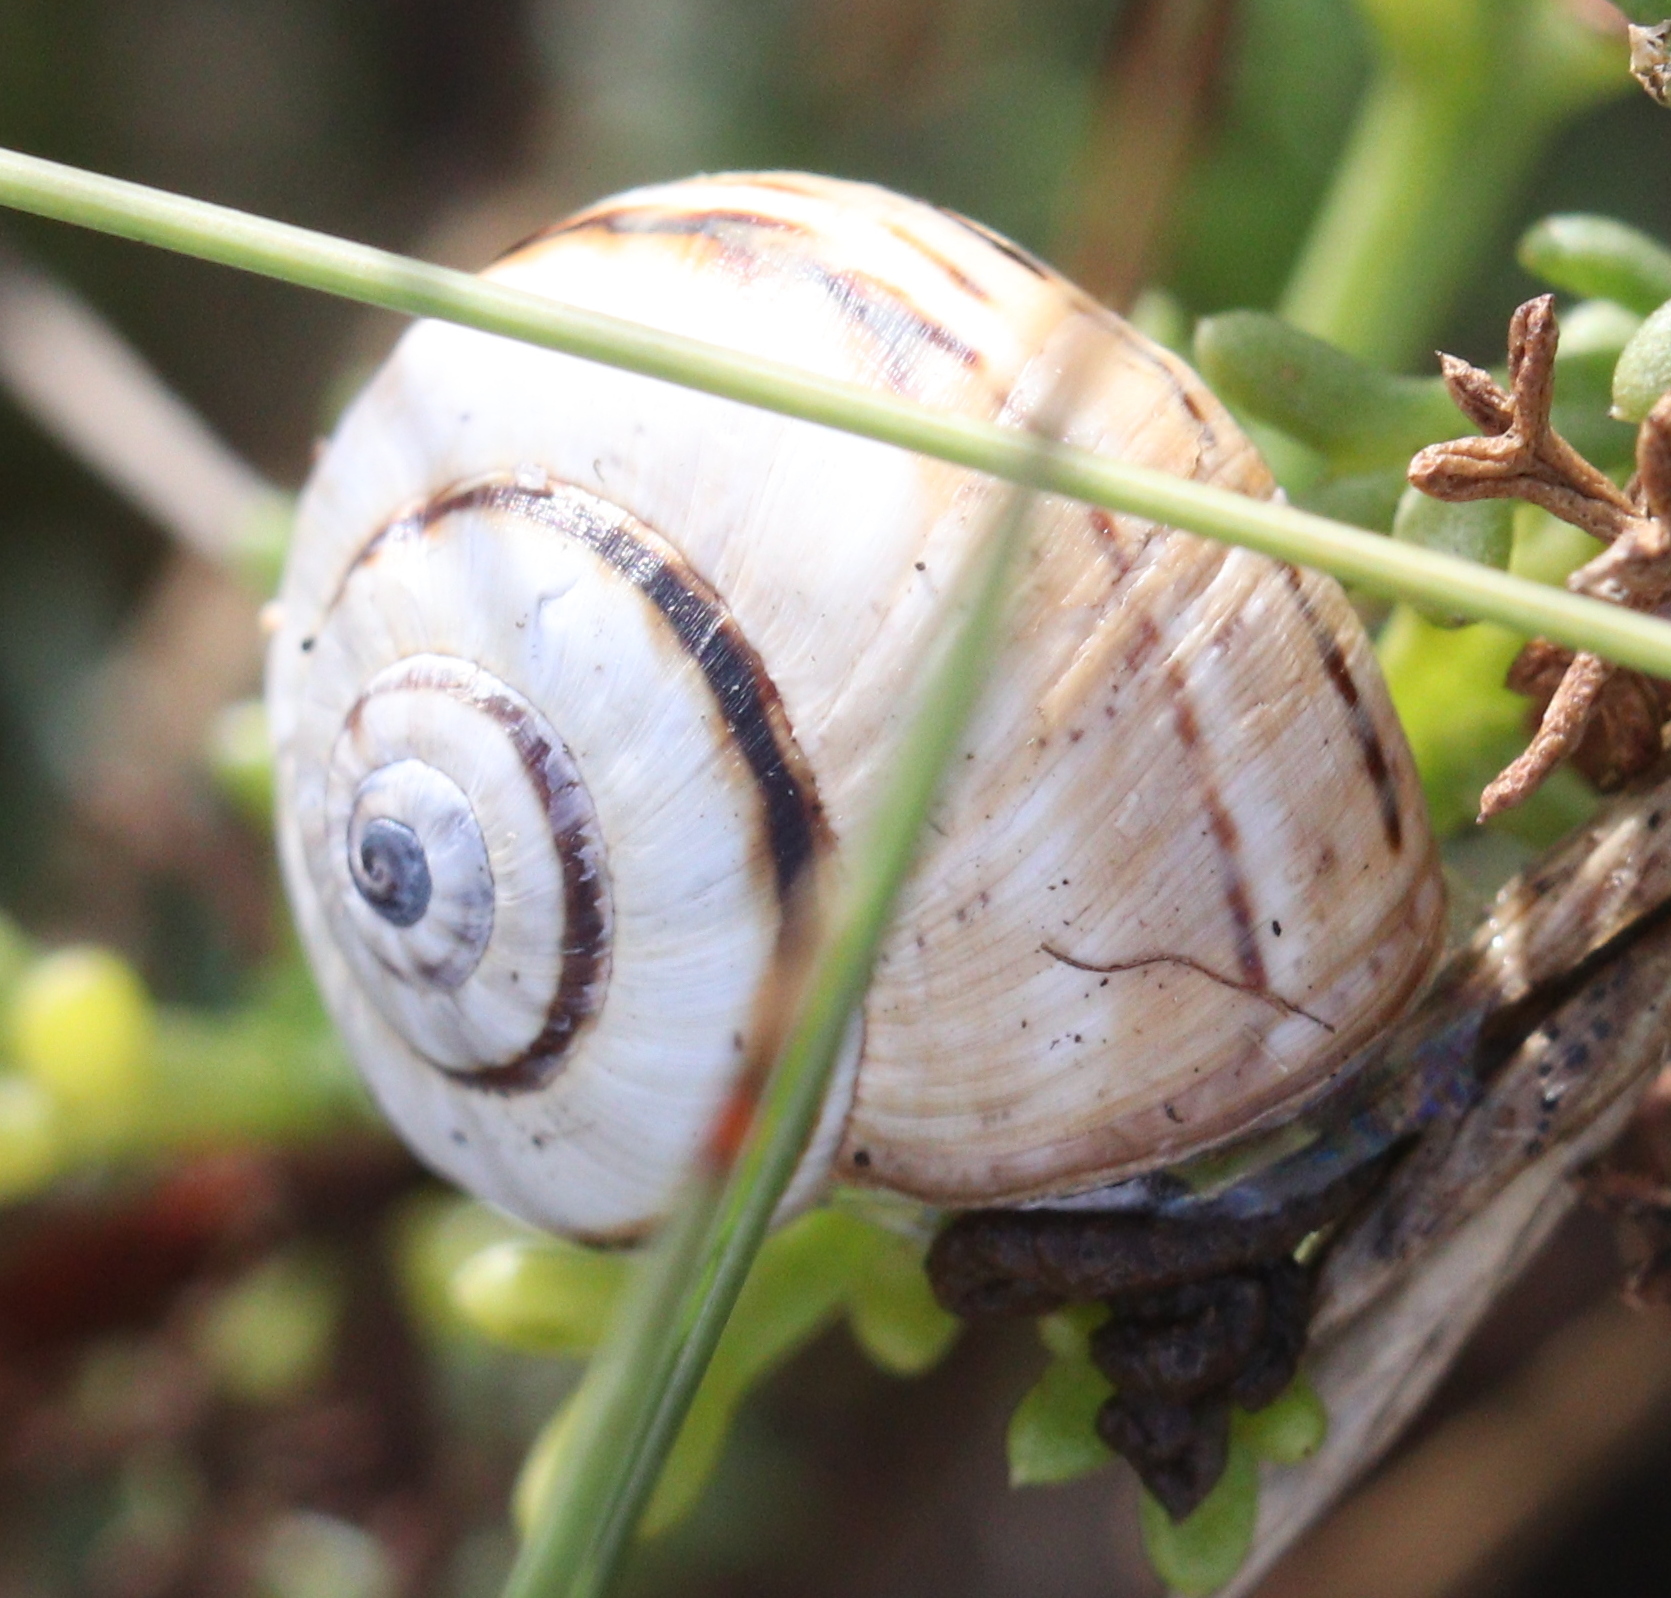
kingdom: Animalia
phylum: Mollusca
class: Gastropoda
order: Stylommatophora
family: Helicidae
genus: Theba
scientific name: Theba pisana
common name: White snail
